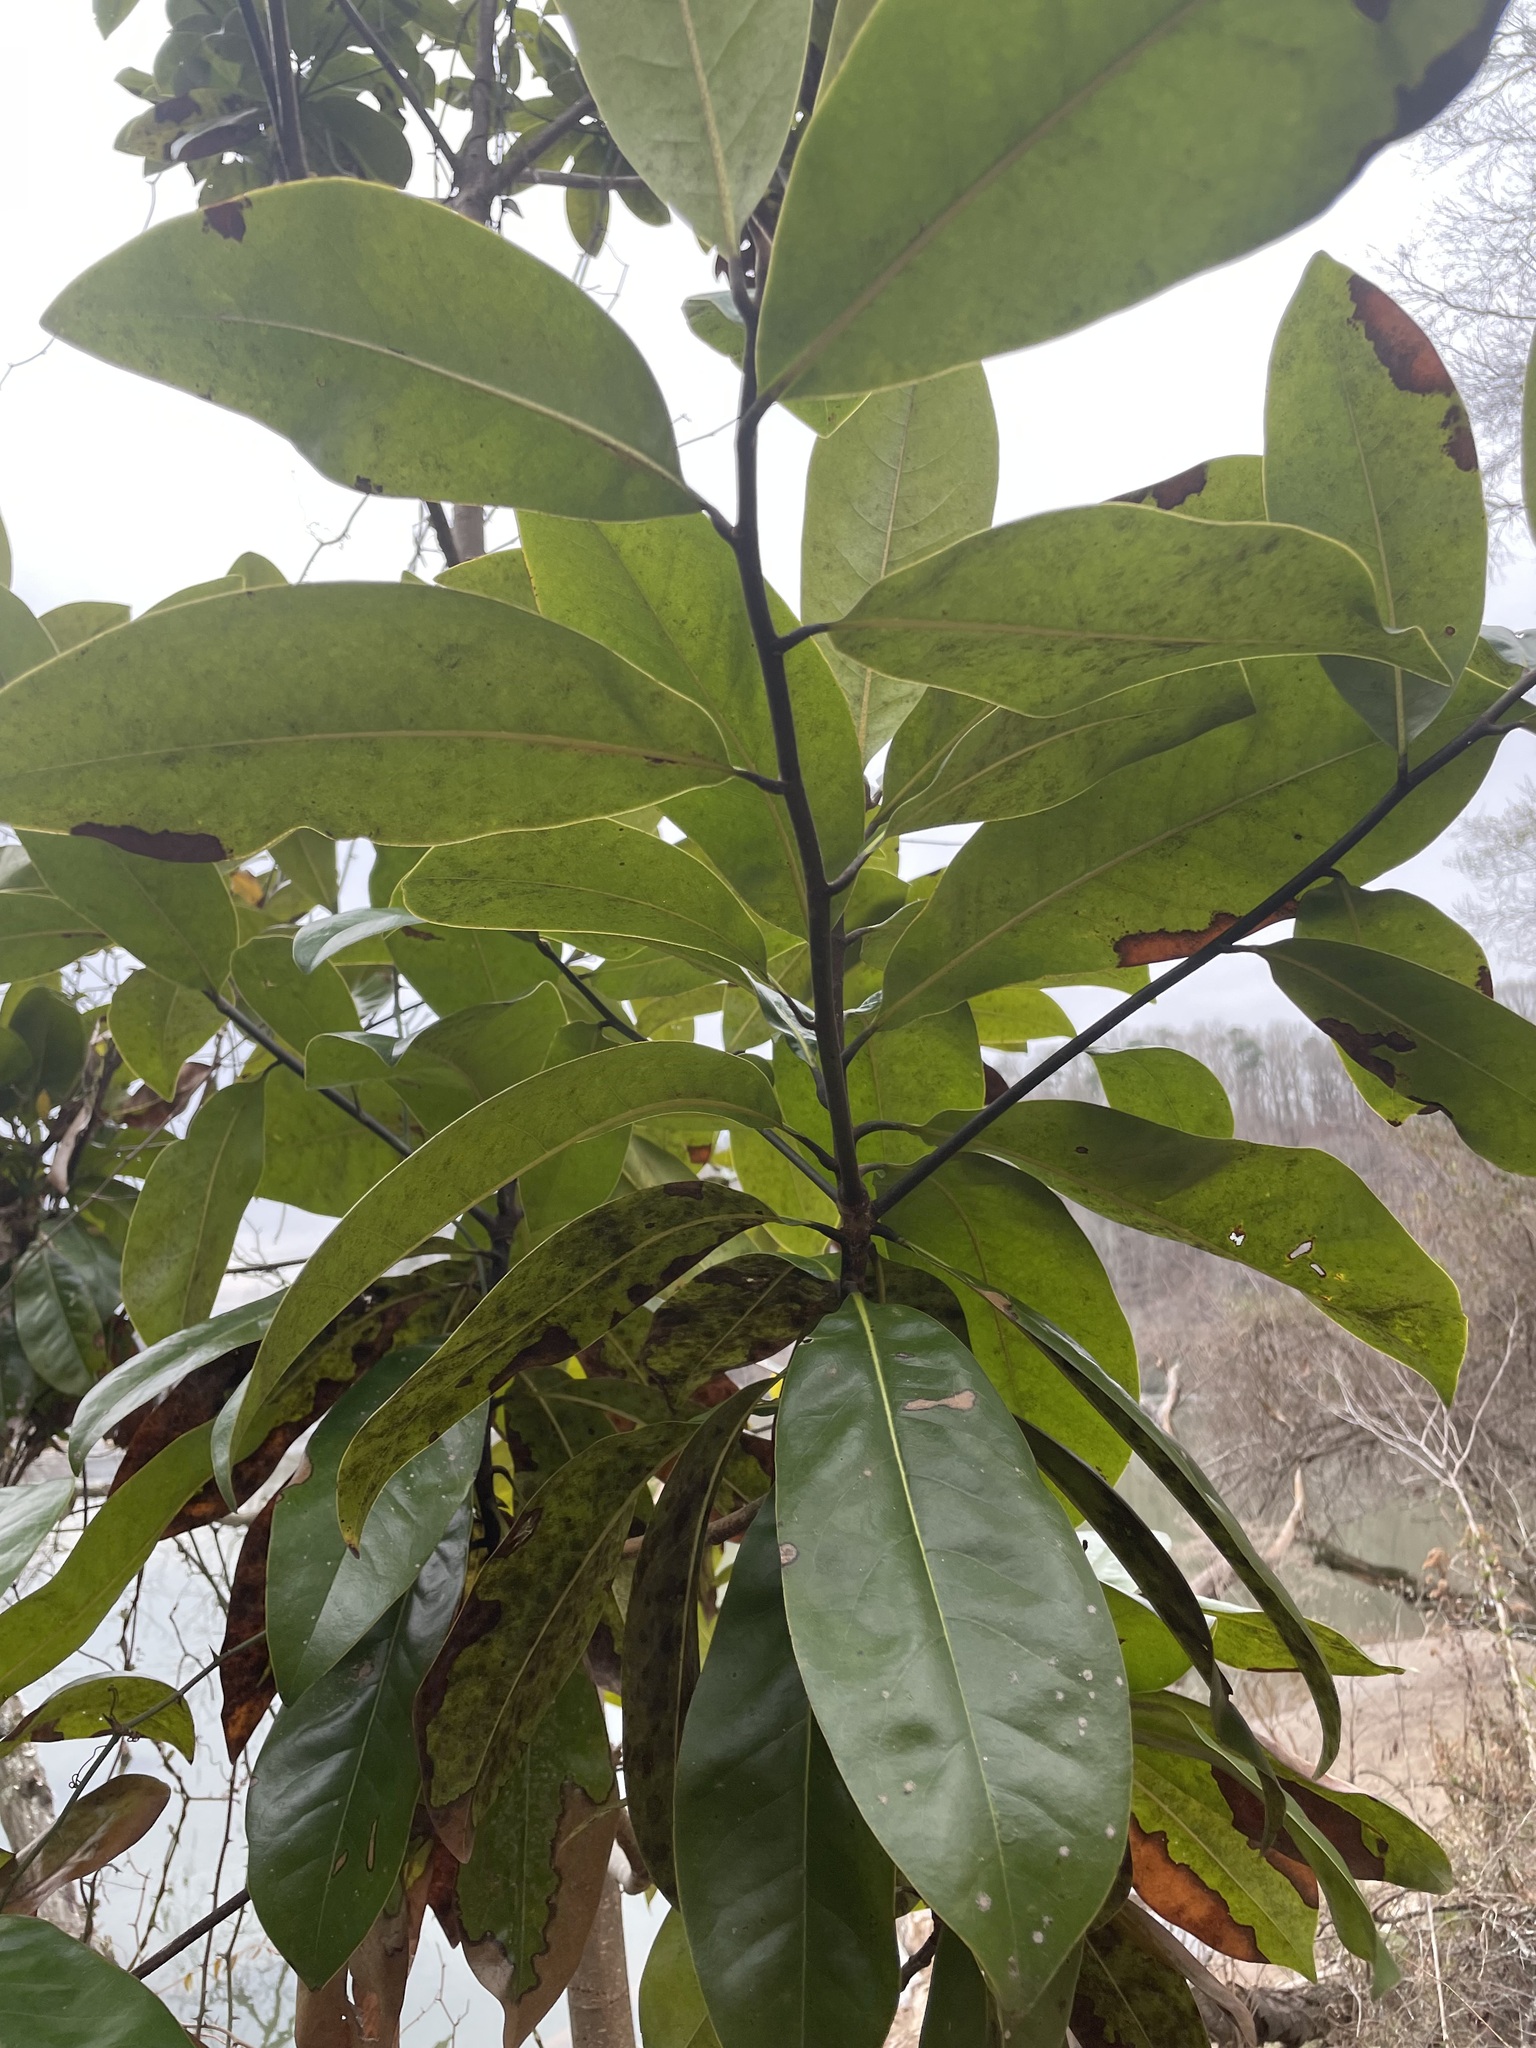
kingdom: Plantae
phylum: Tracheophyta
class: Magnoliopsida
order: Magnoliales
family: Magnoliaceae
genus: Magnolia
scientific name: Magnolia grandiflora
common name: Southern magnolia
